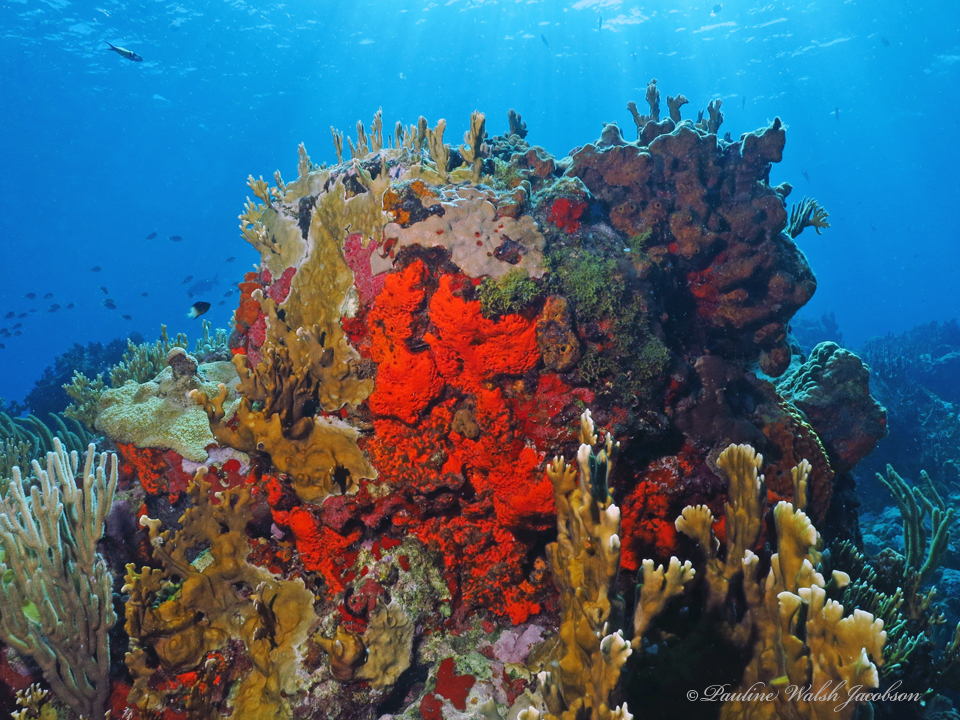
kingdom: Animalia
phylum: Porifera
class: Demospongiae
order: Agelasida
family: Agelasidae
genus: Agelas
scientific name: Agelas clathrodes
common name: Orange elephant ear sponge
